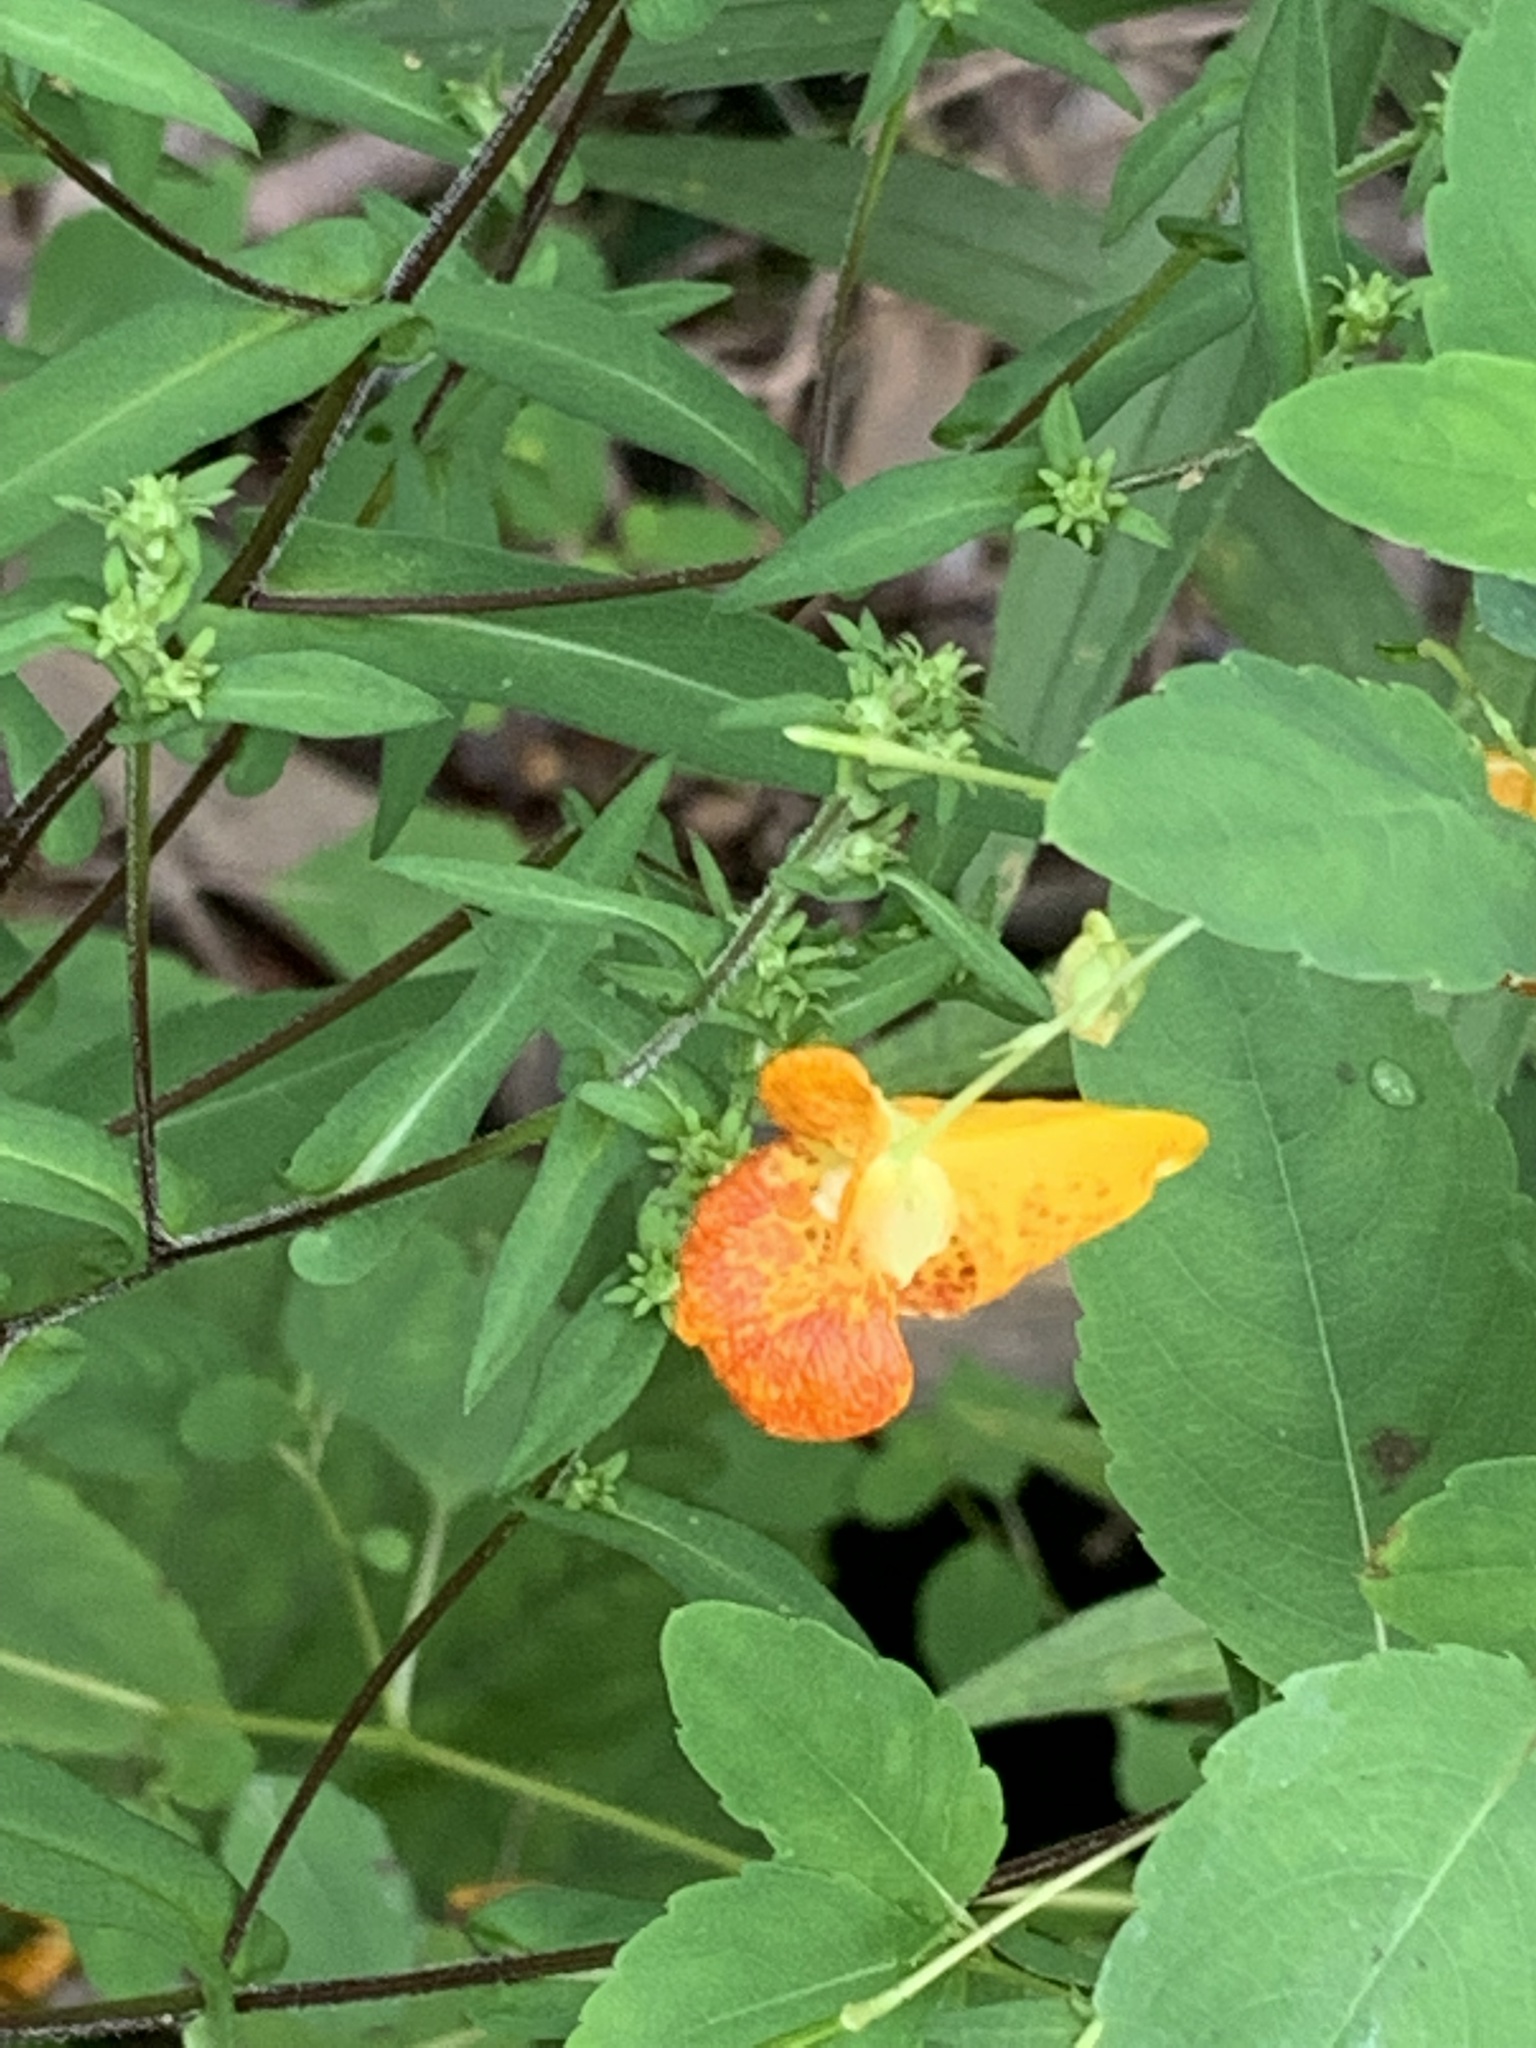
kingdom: Plantae
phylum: Tracheophyta
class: Magnoliopsida
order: Ericales
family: Balsaminaceae
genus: Impatiens
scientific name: Impatiens capensis
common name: Orange balsam
